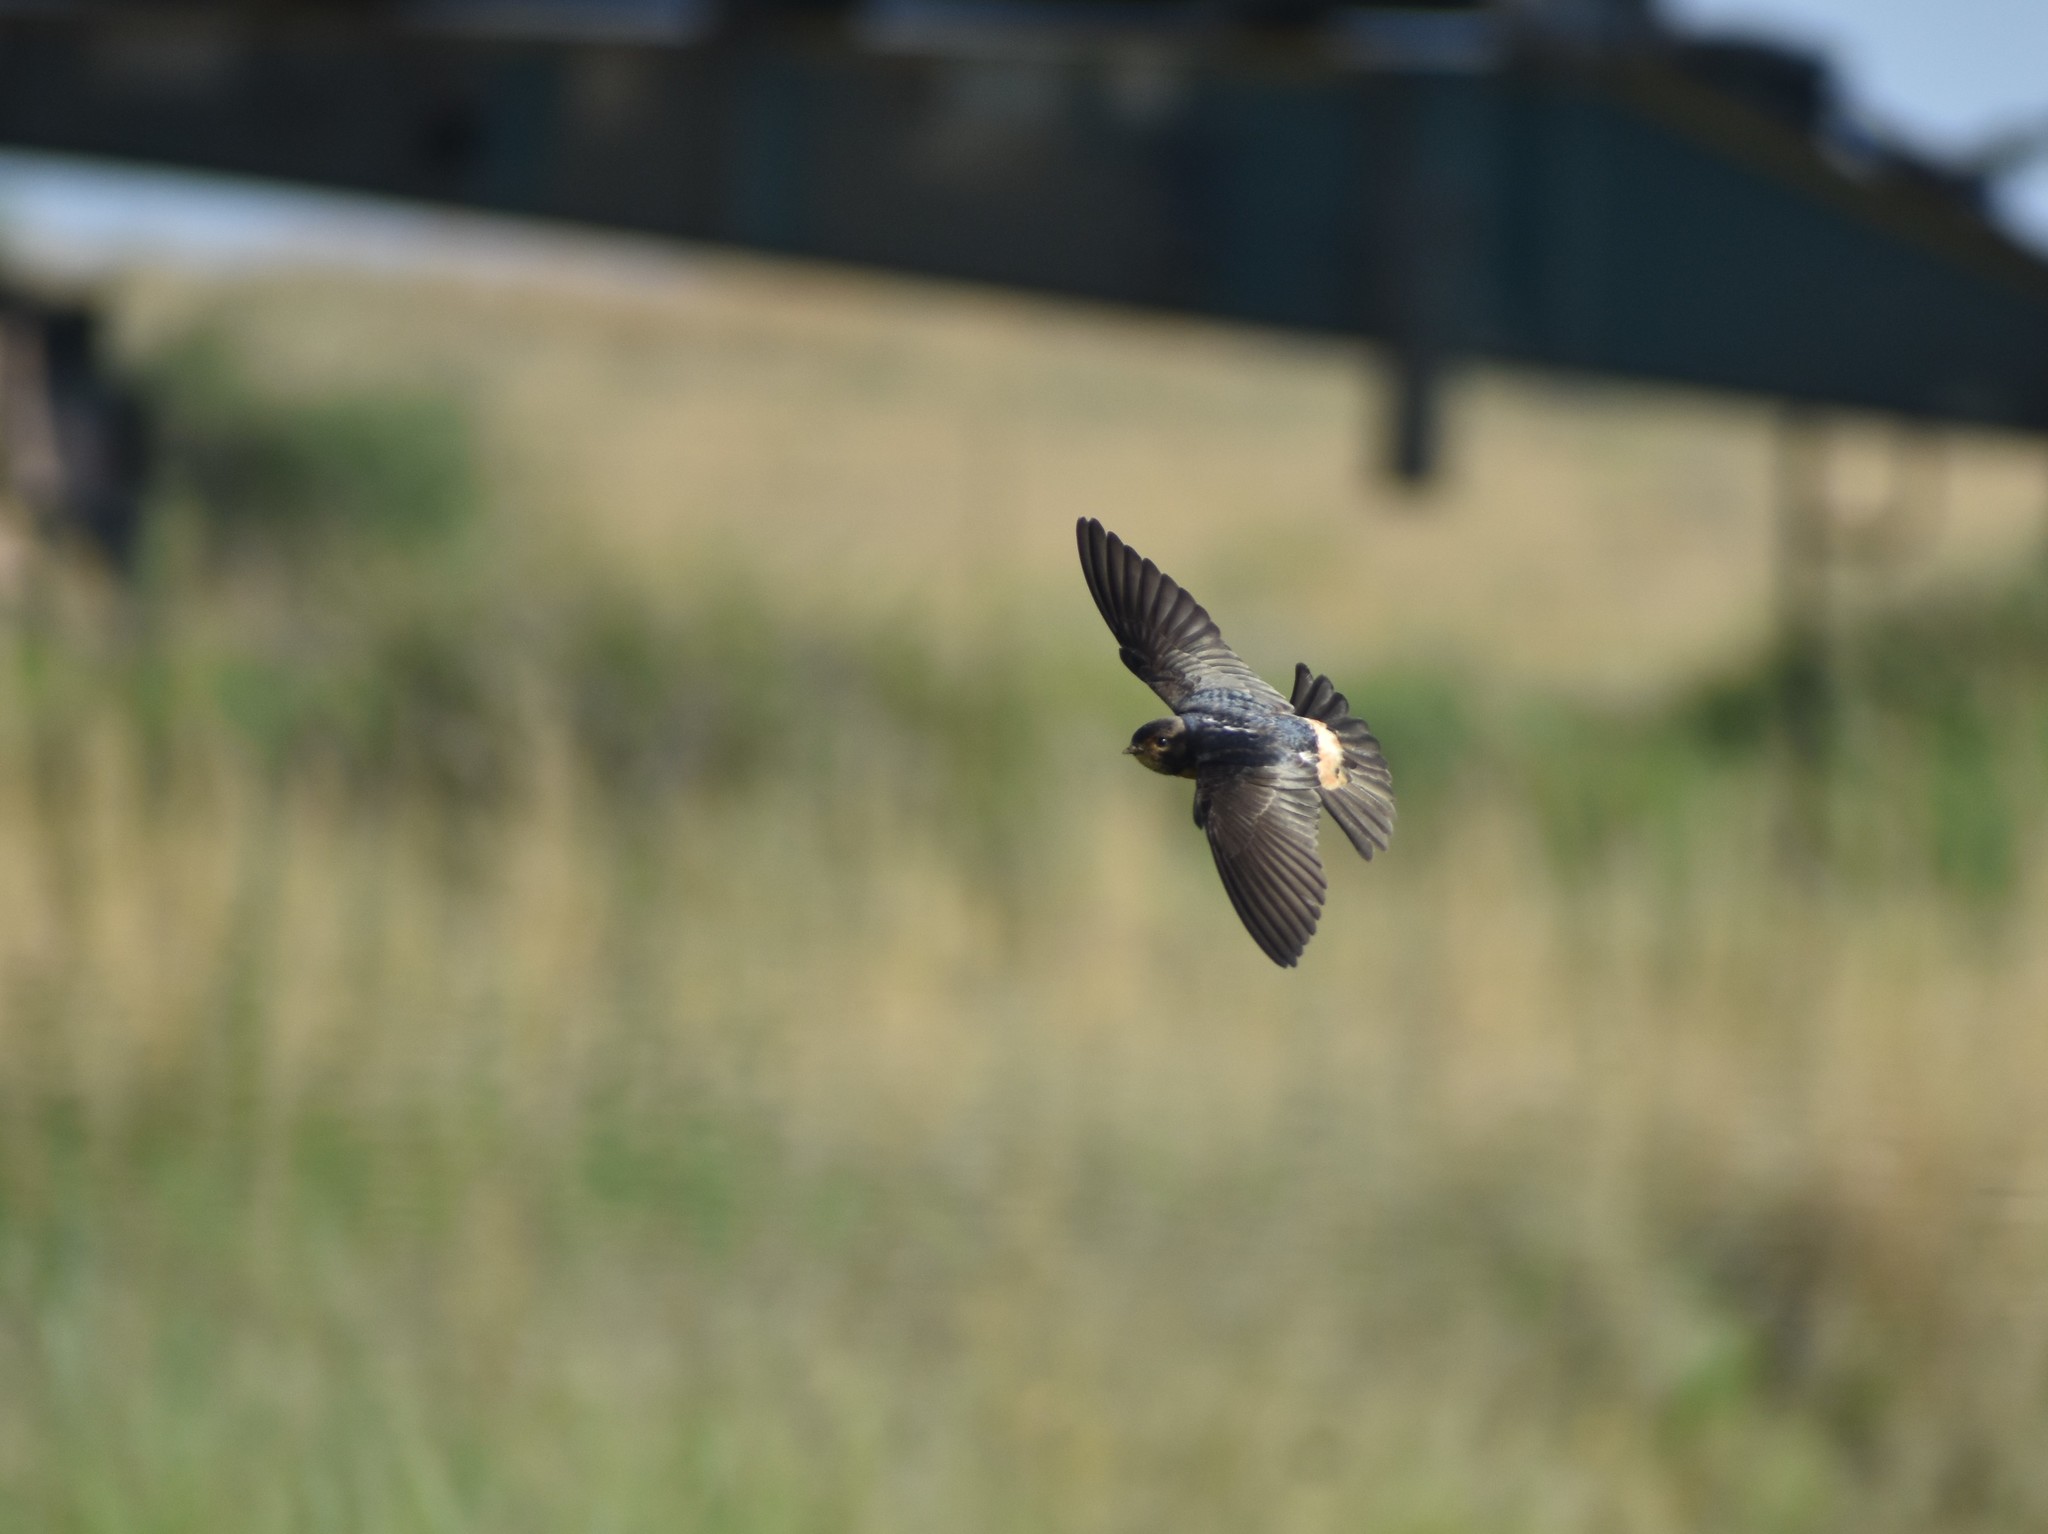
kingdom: Animalia
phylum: Chordata
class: Aves
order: Passeriformes
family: Hirundinidae
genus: Petrochelidon
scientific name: Petrochelidon spilodera
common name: South african swallow
